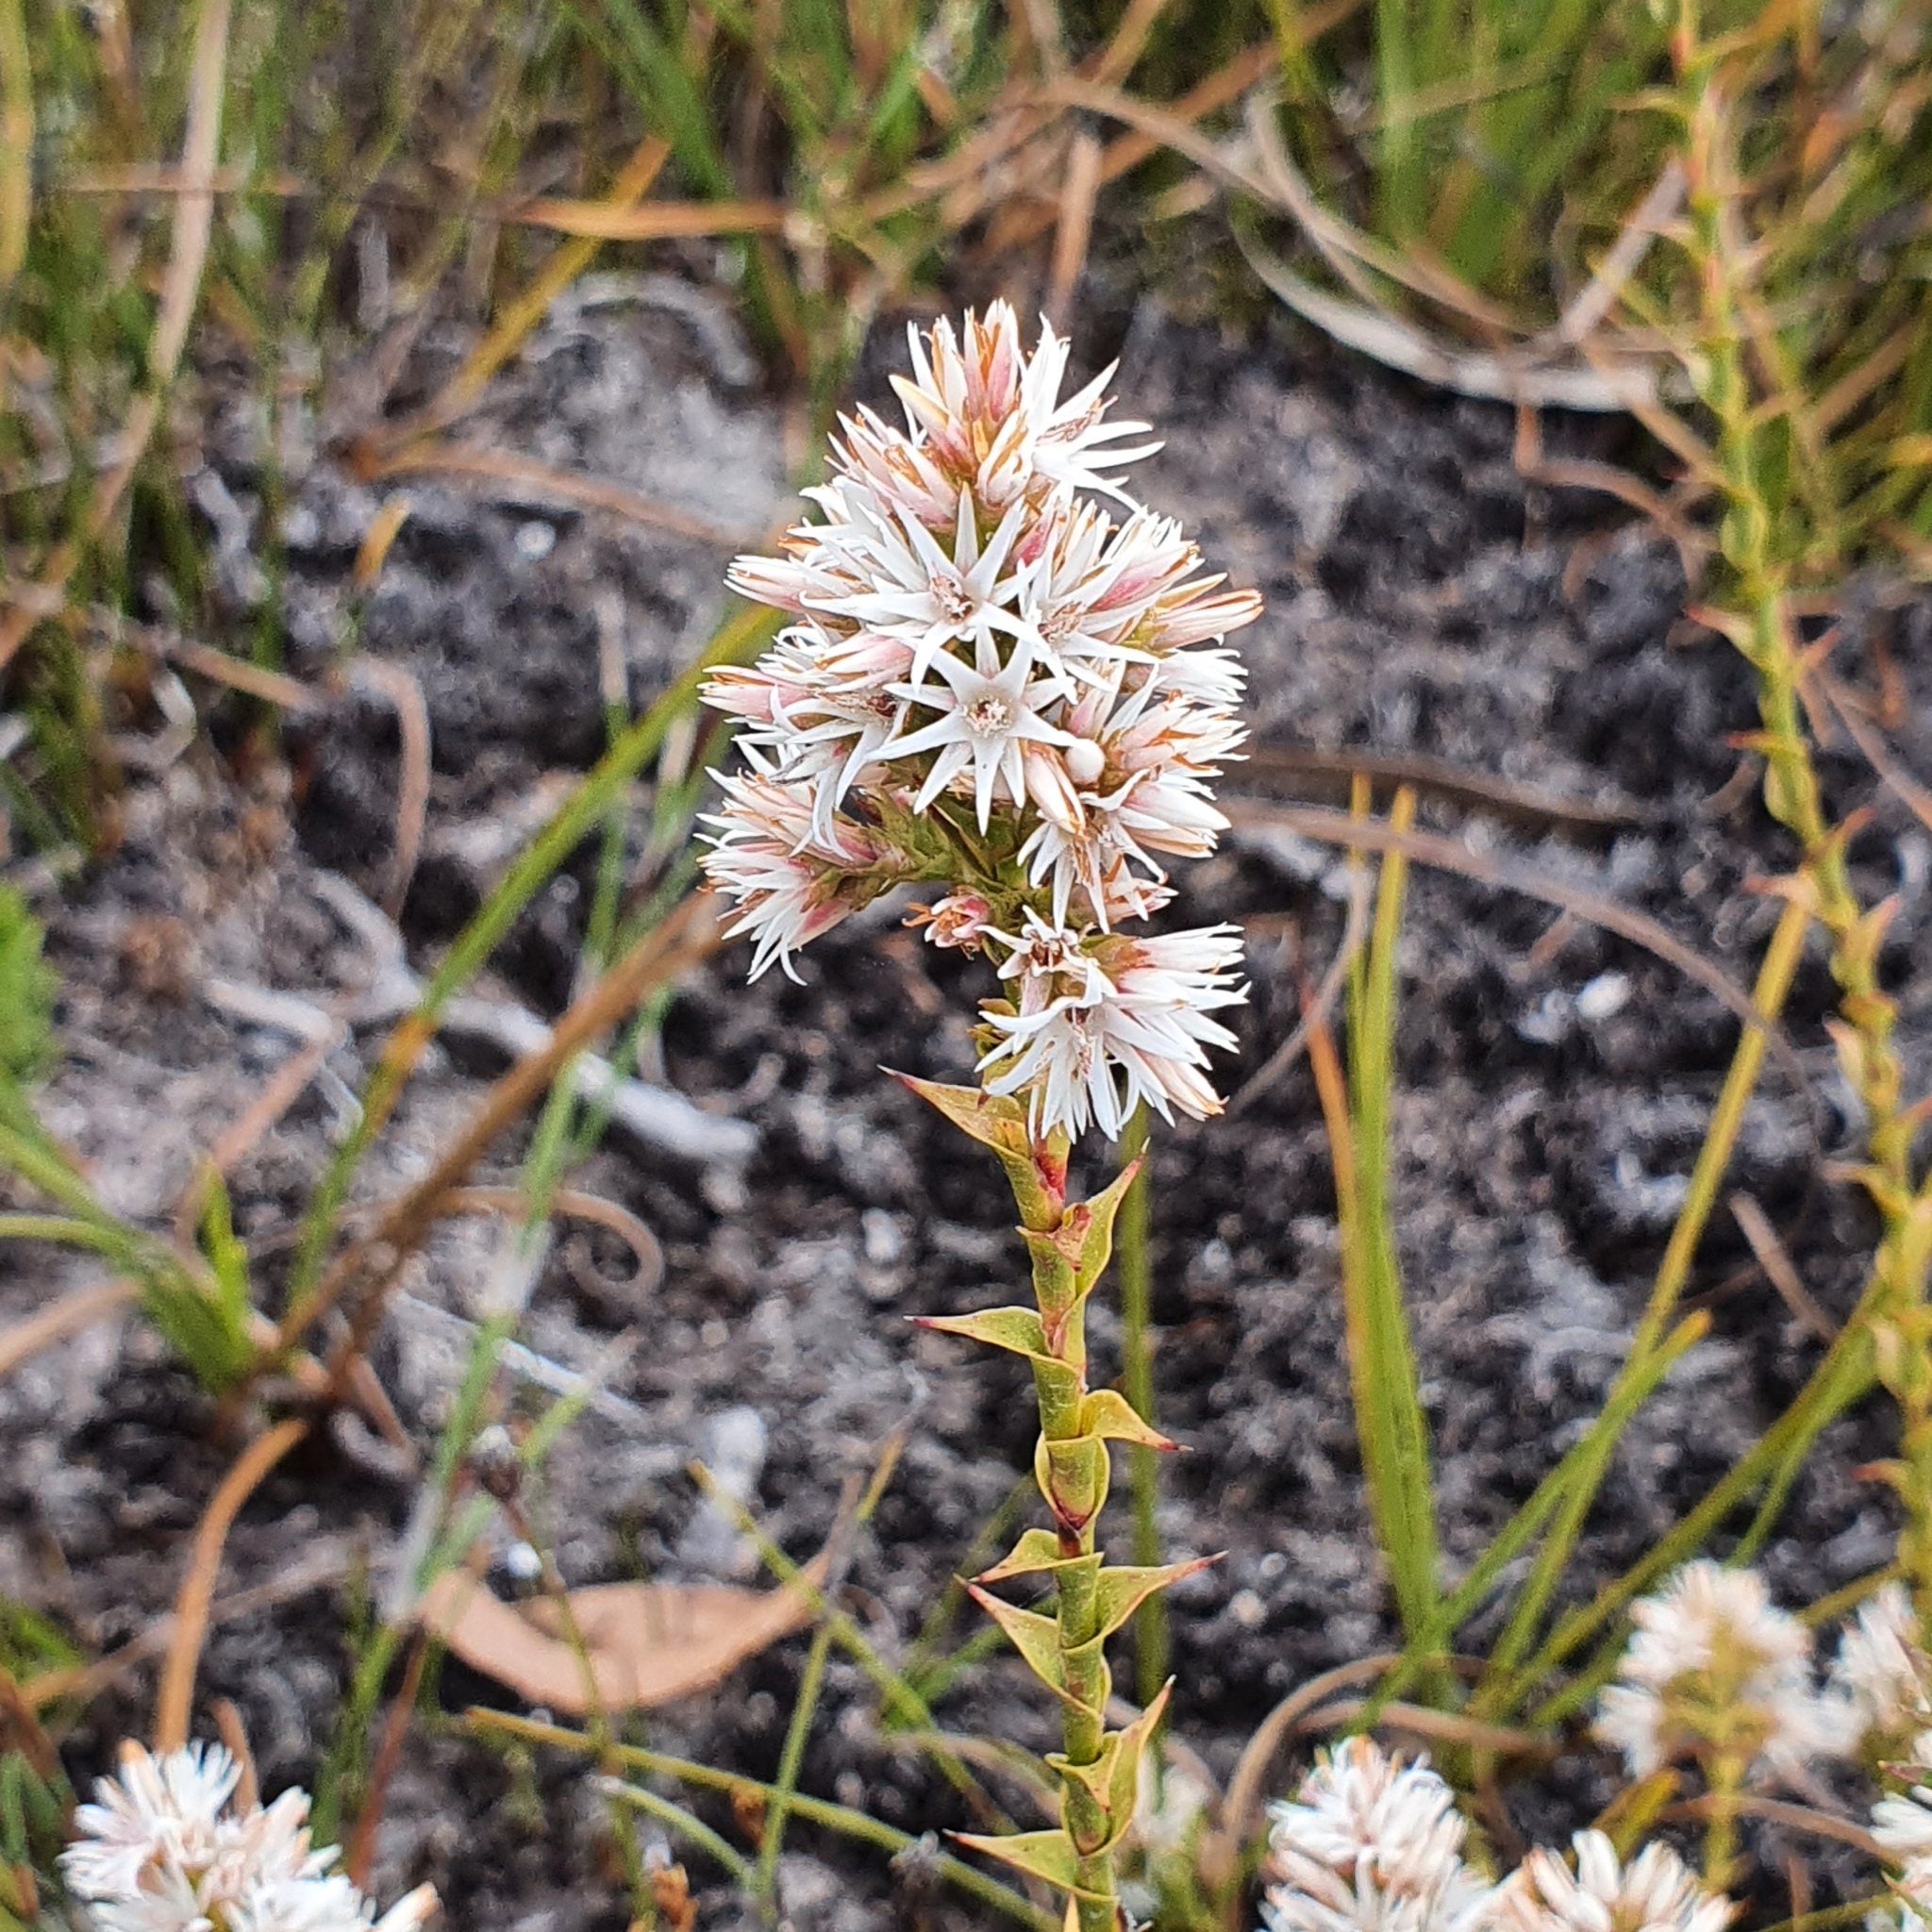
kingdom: Plantae
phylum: Tracheophyta
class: Magnoliopsida
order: Ericales
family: Ericaceae
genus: Sprengelia
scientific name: Sprengelia propinqua
